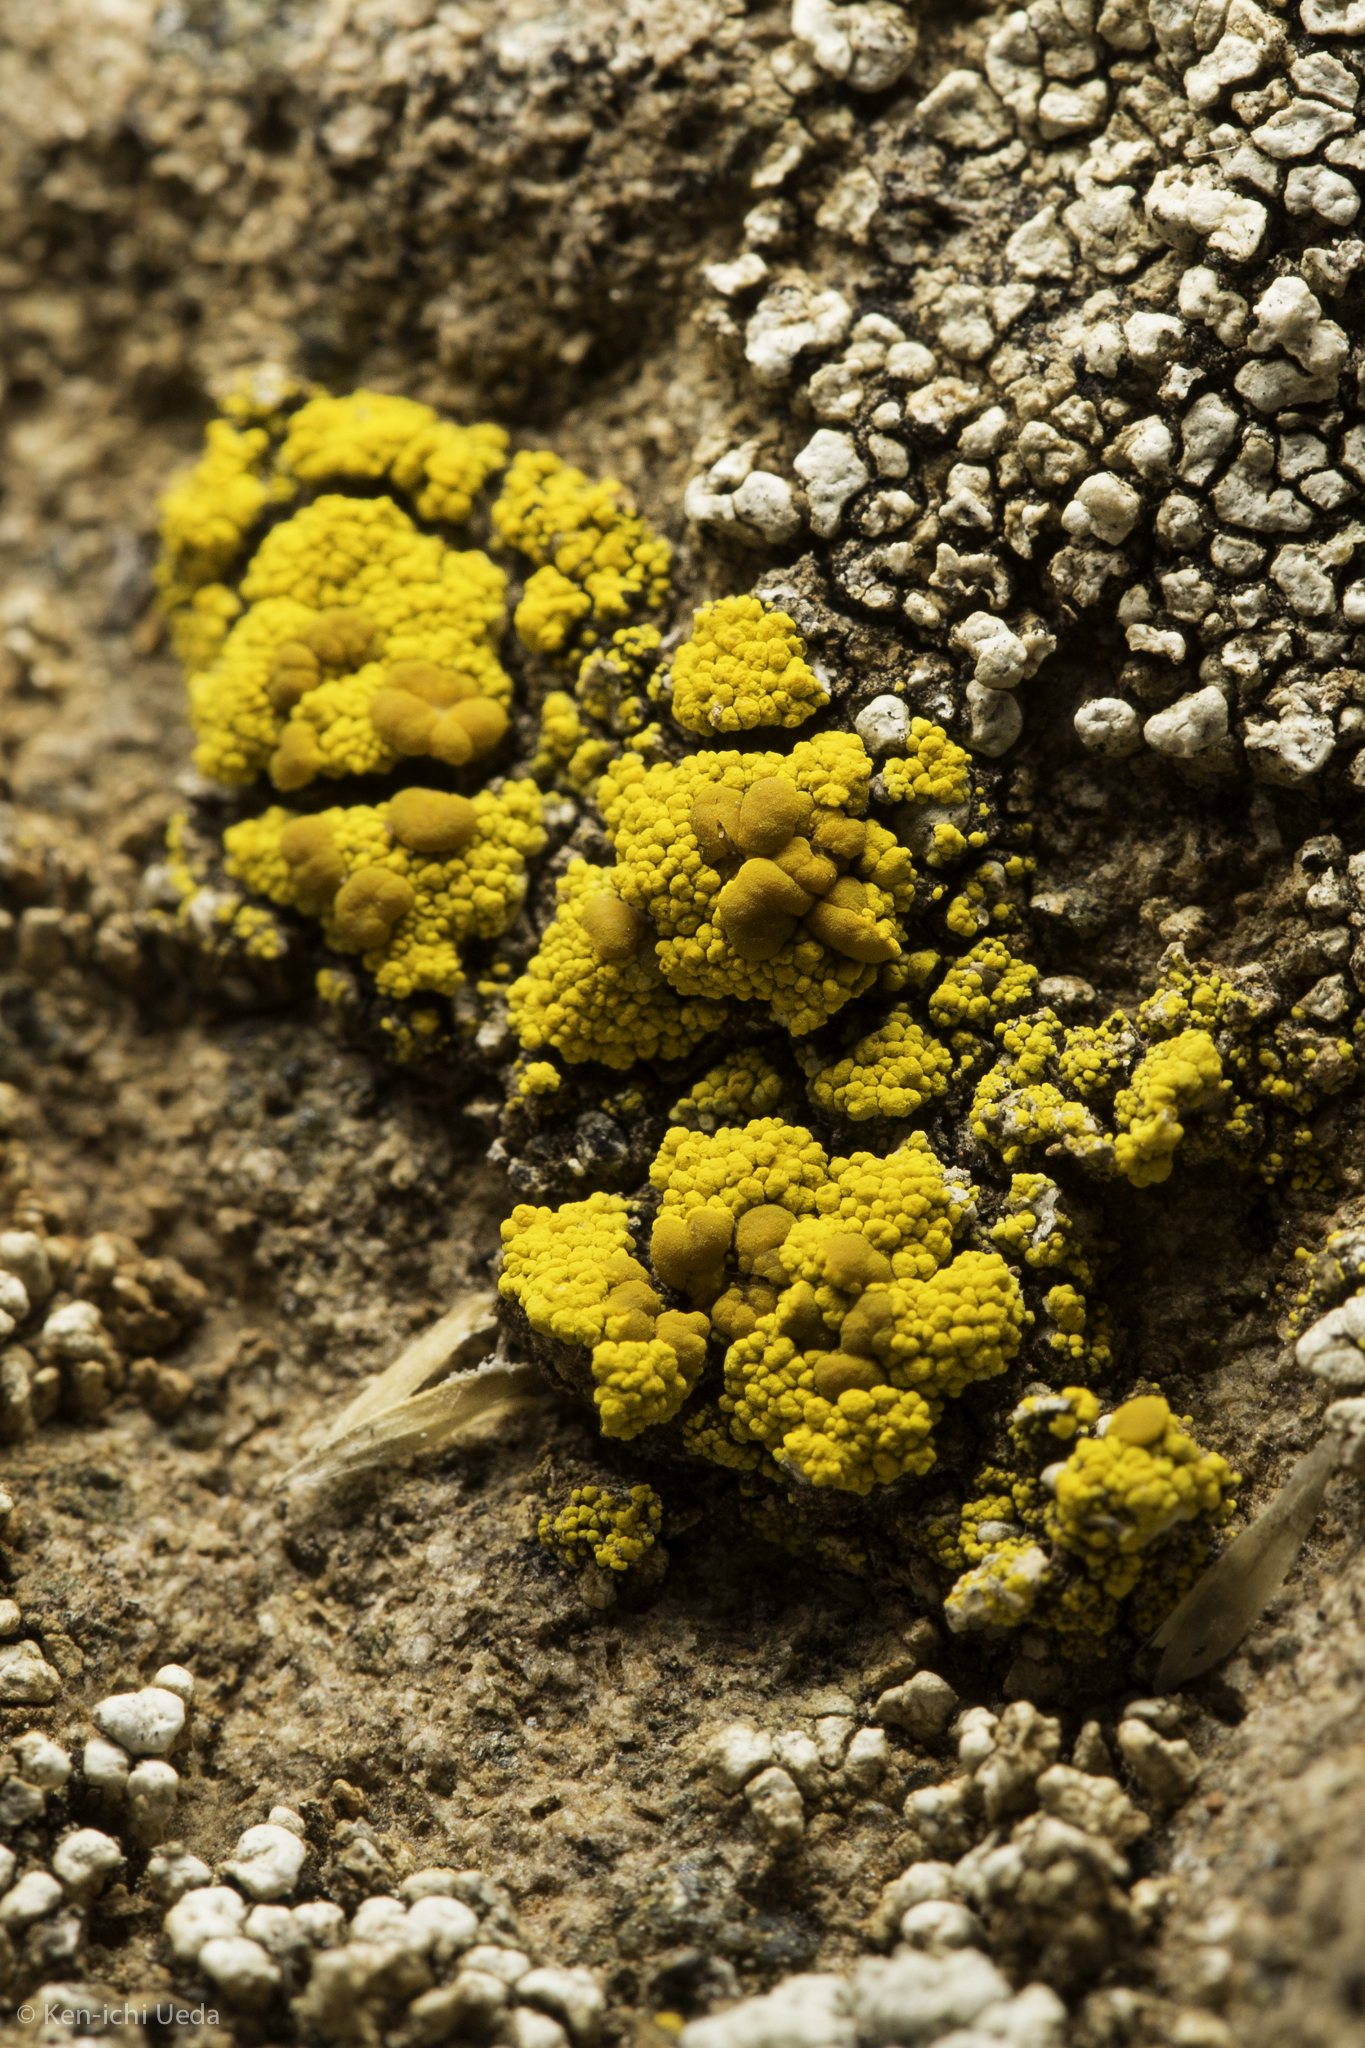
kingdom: Fungi
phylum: Ascomycota
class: Candelariomycetes
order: Candelariales
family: Candelariaceae
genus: Candelariella
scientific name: Candelariella rosulans
